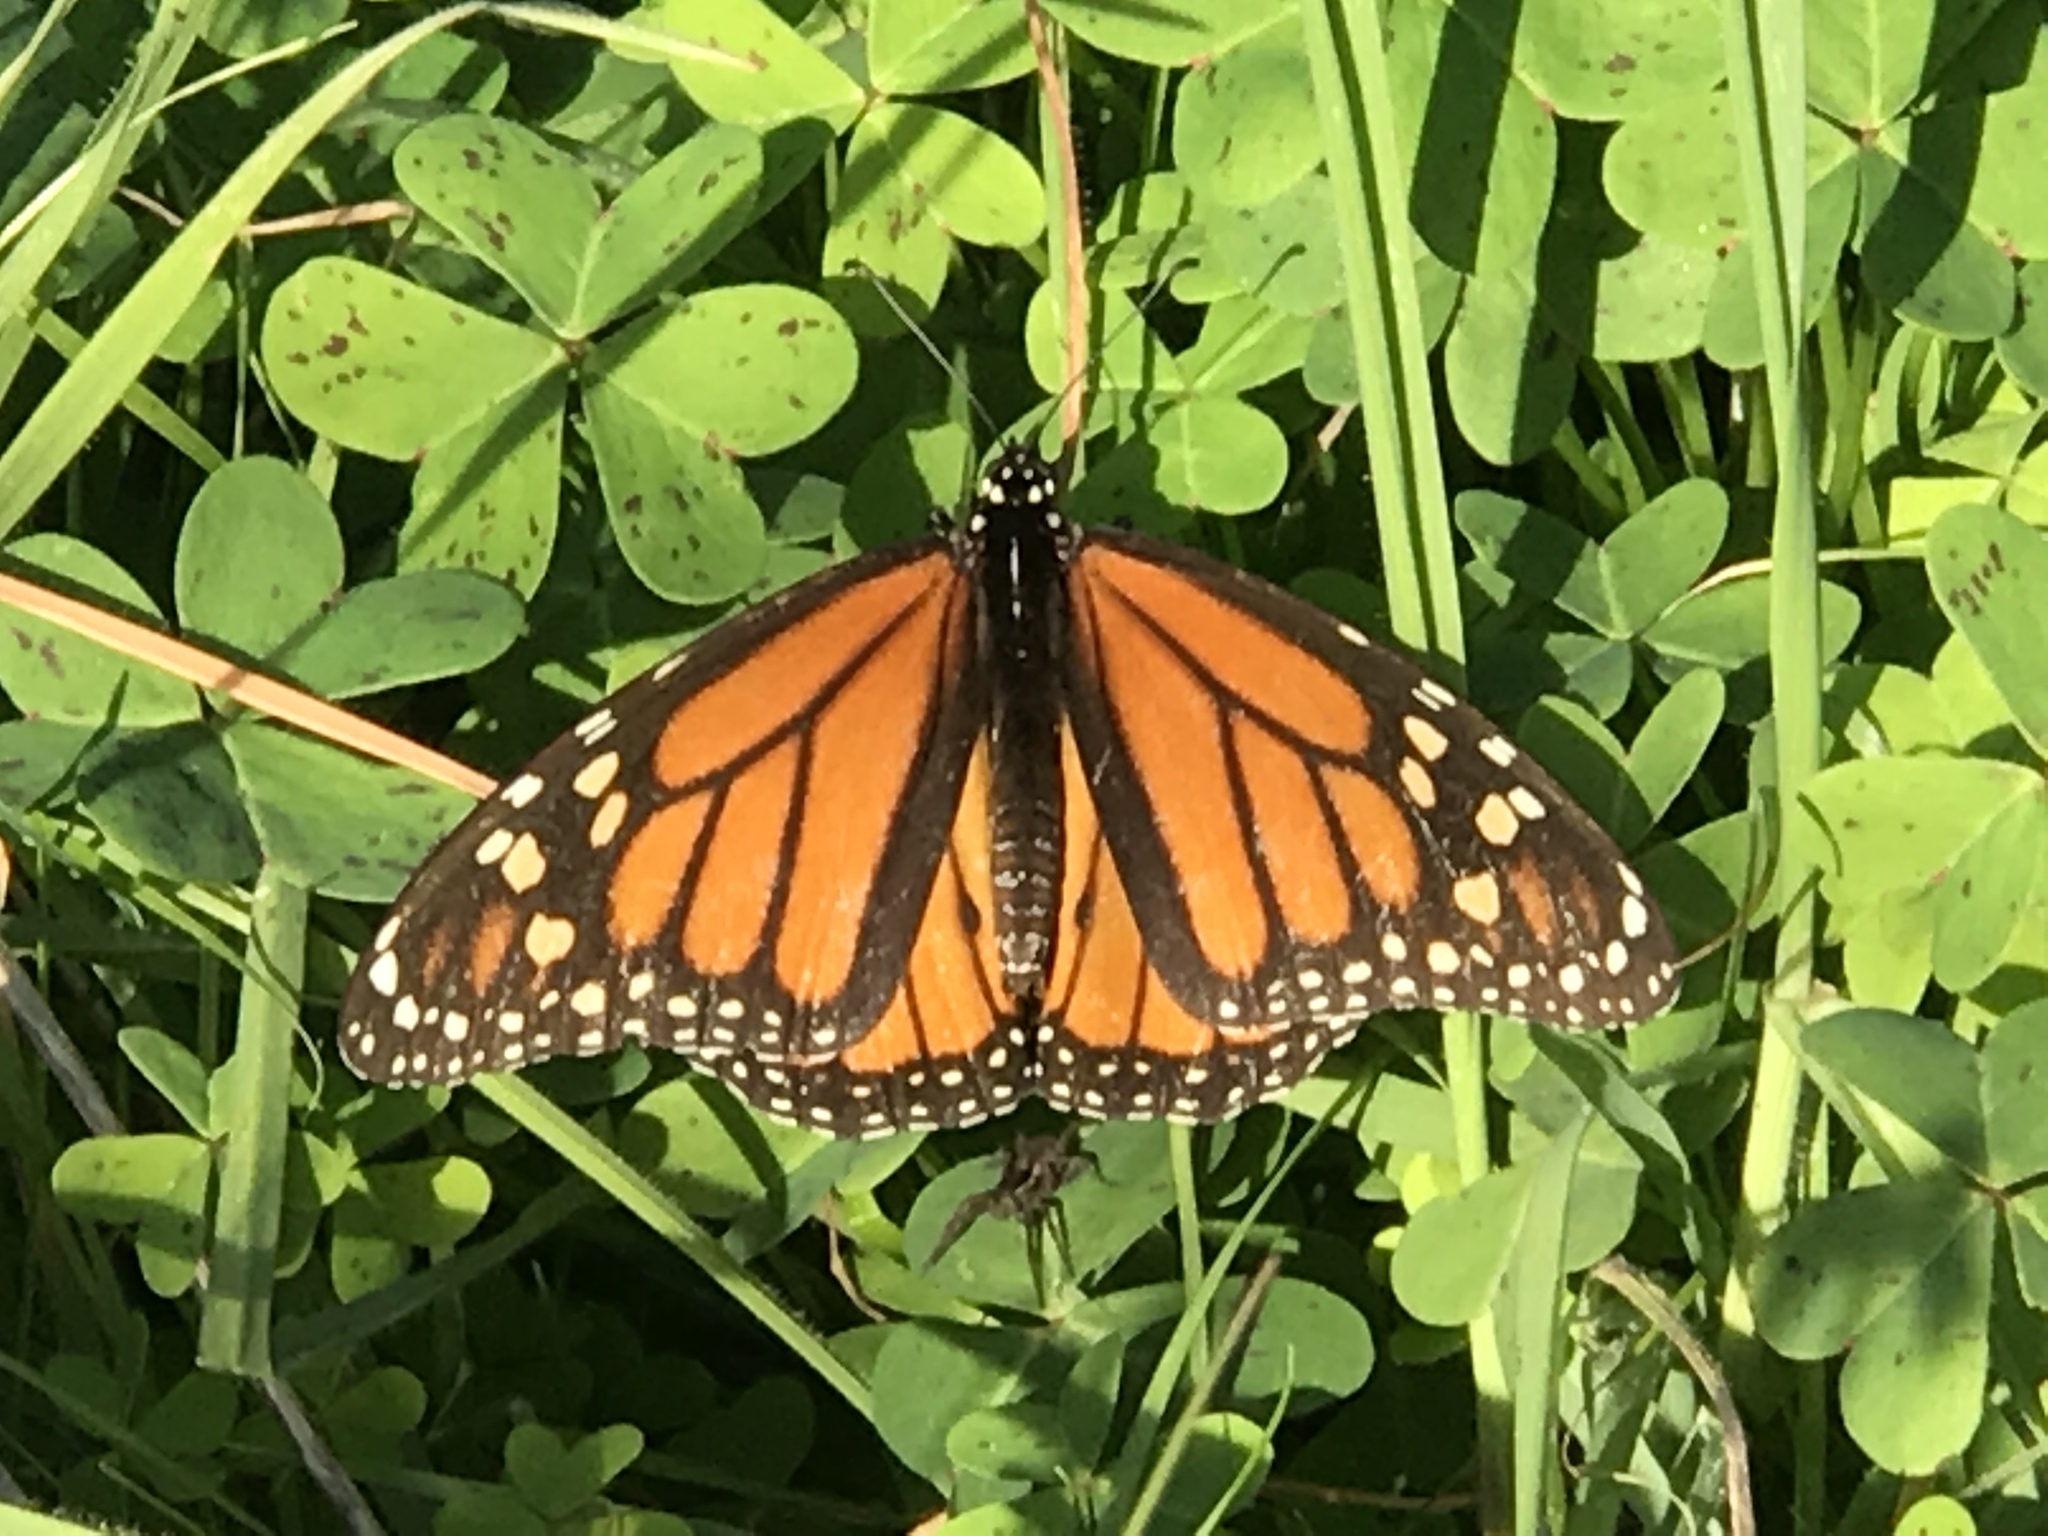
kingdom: Animalia
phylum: Arthropoda
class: Insecta
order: Lepidoptera
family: Nymphalidae
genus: Danaus
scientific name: Danaus plexippus
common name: Monarch
